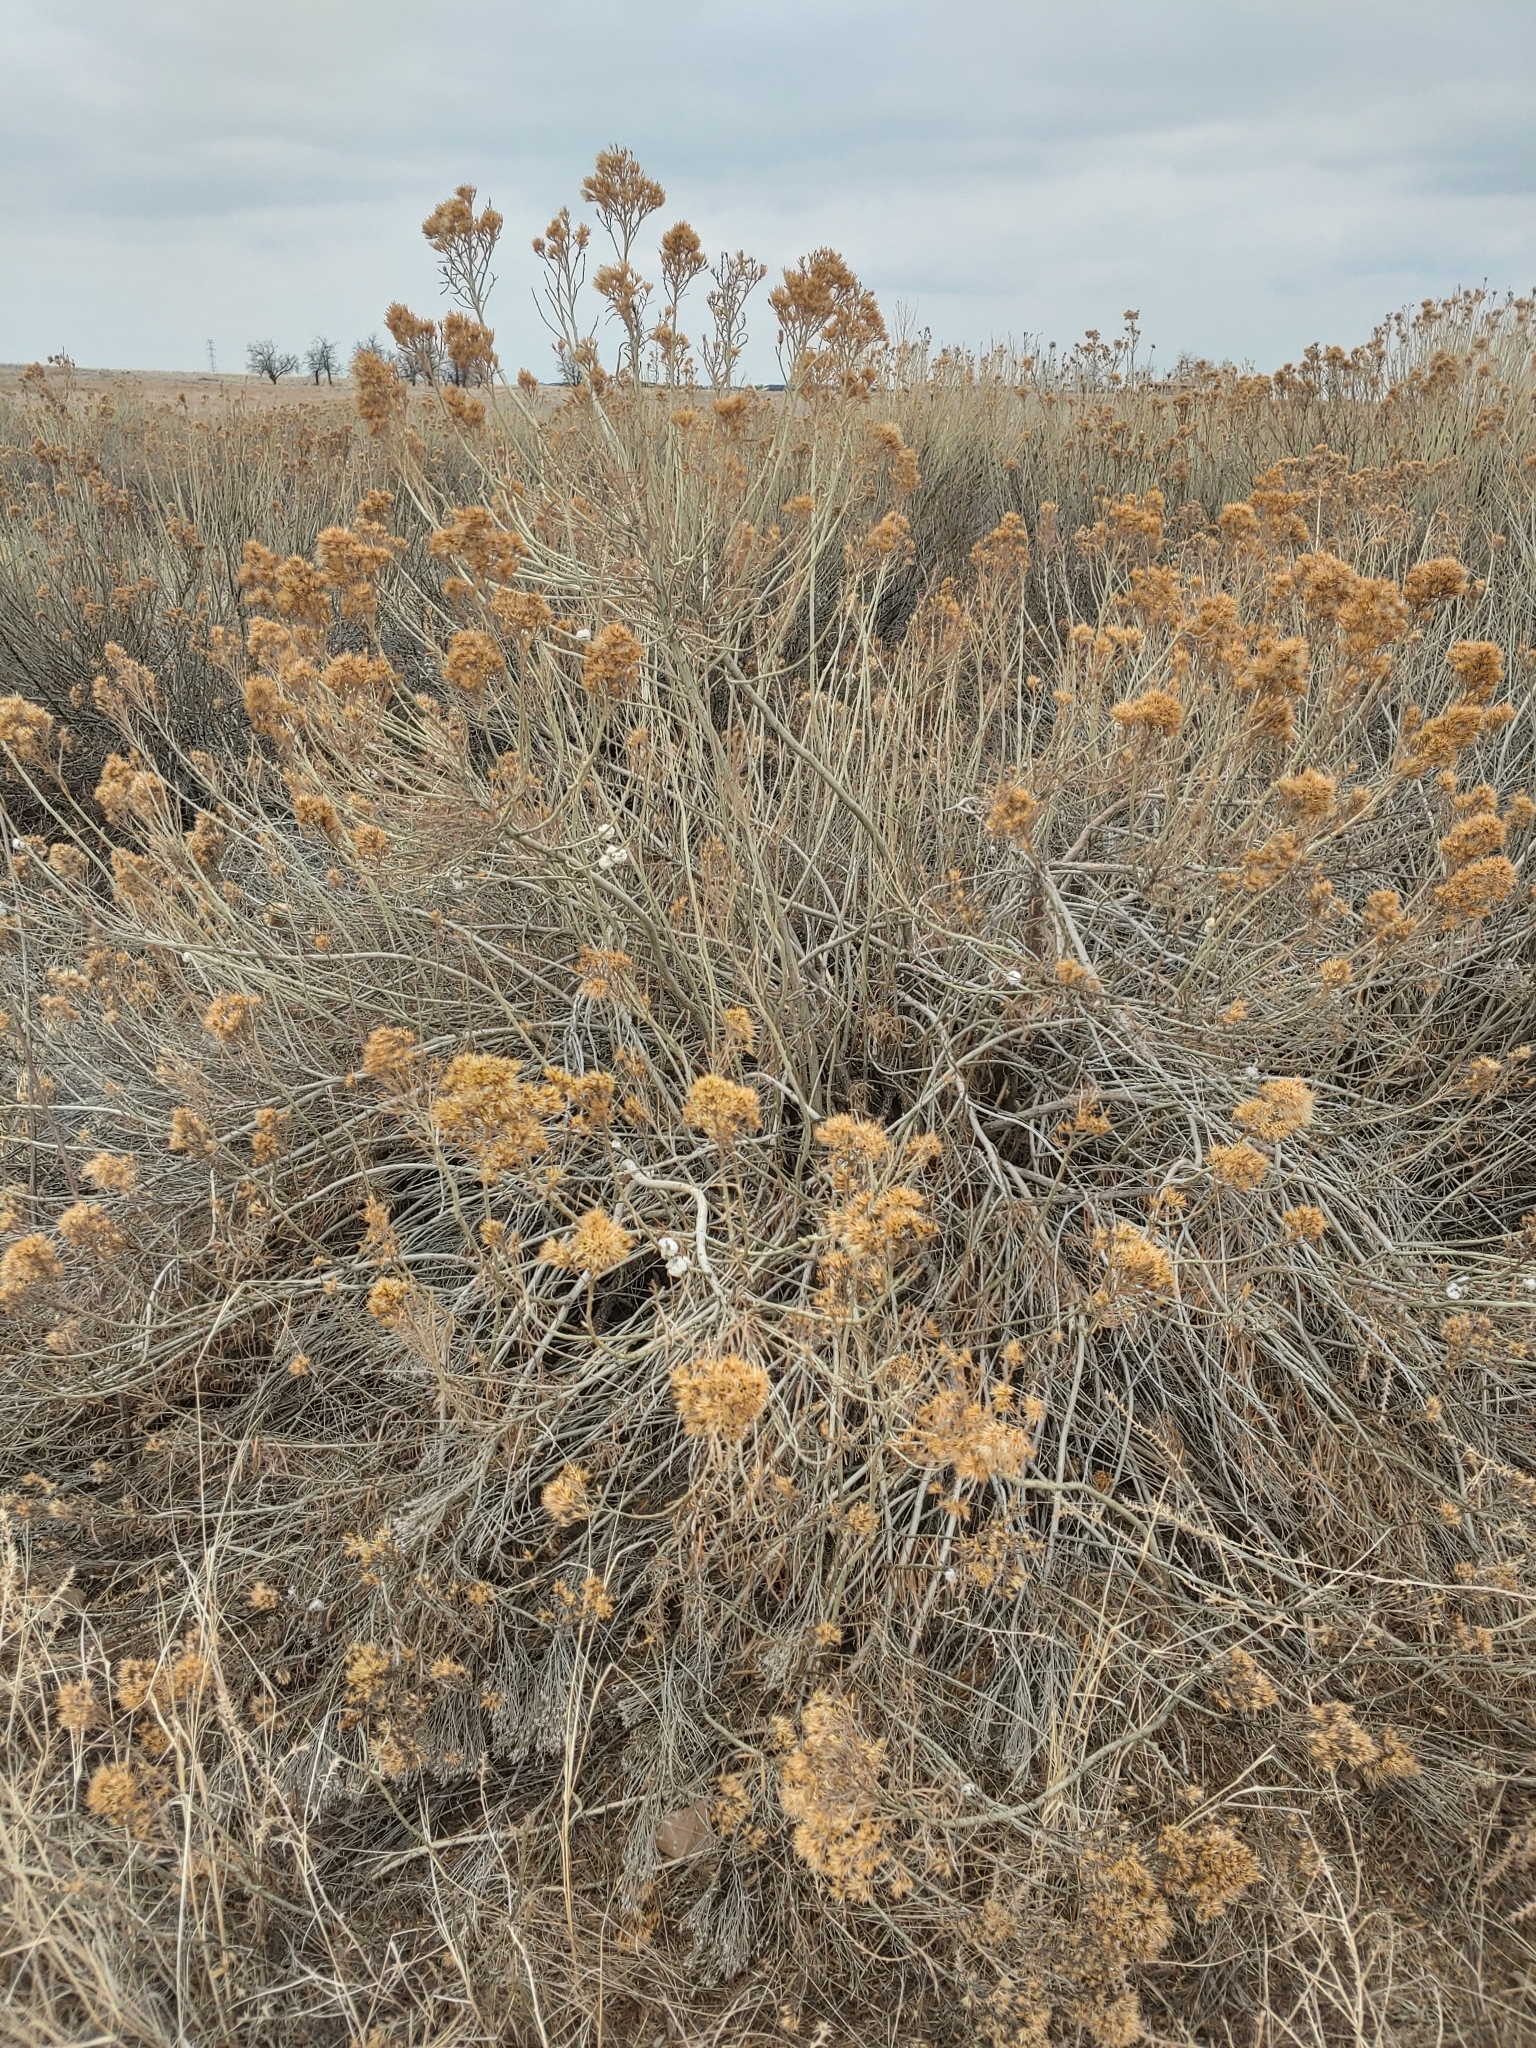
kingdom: Plantae
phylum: Tracheophyta
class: Magnoliopsida
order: Asterales
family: Asteraceae
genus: Ericameria
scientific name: Ericameria nauseosa
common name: Rubber rabbitbrush
